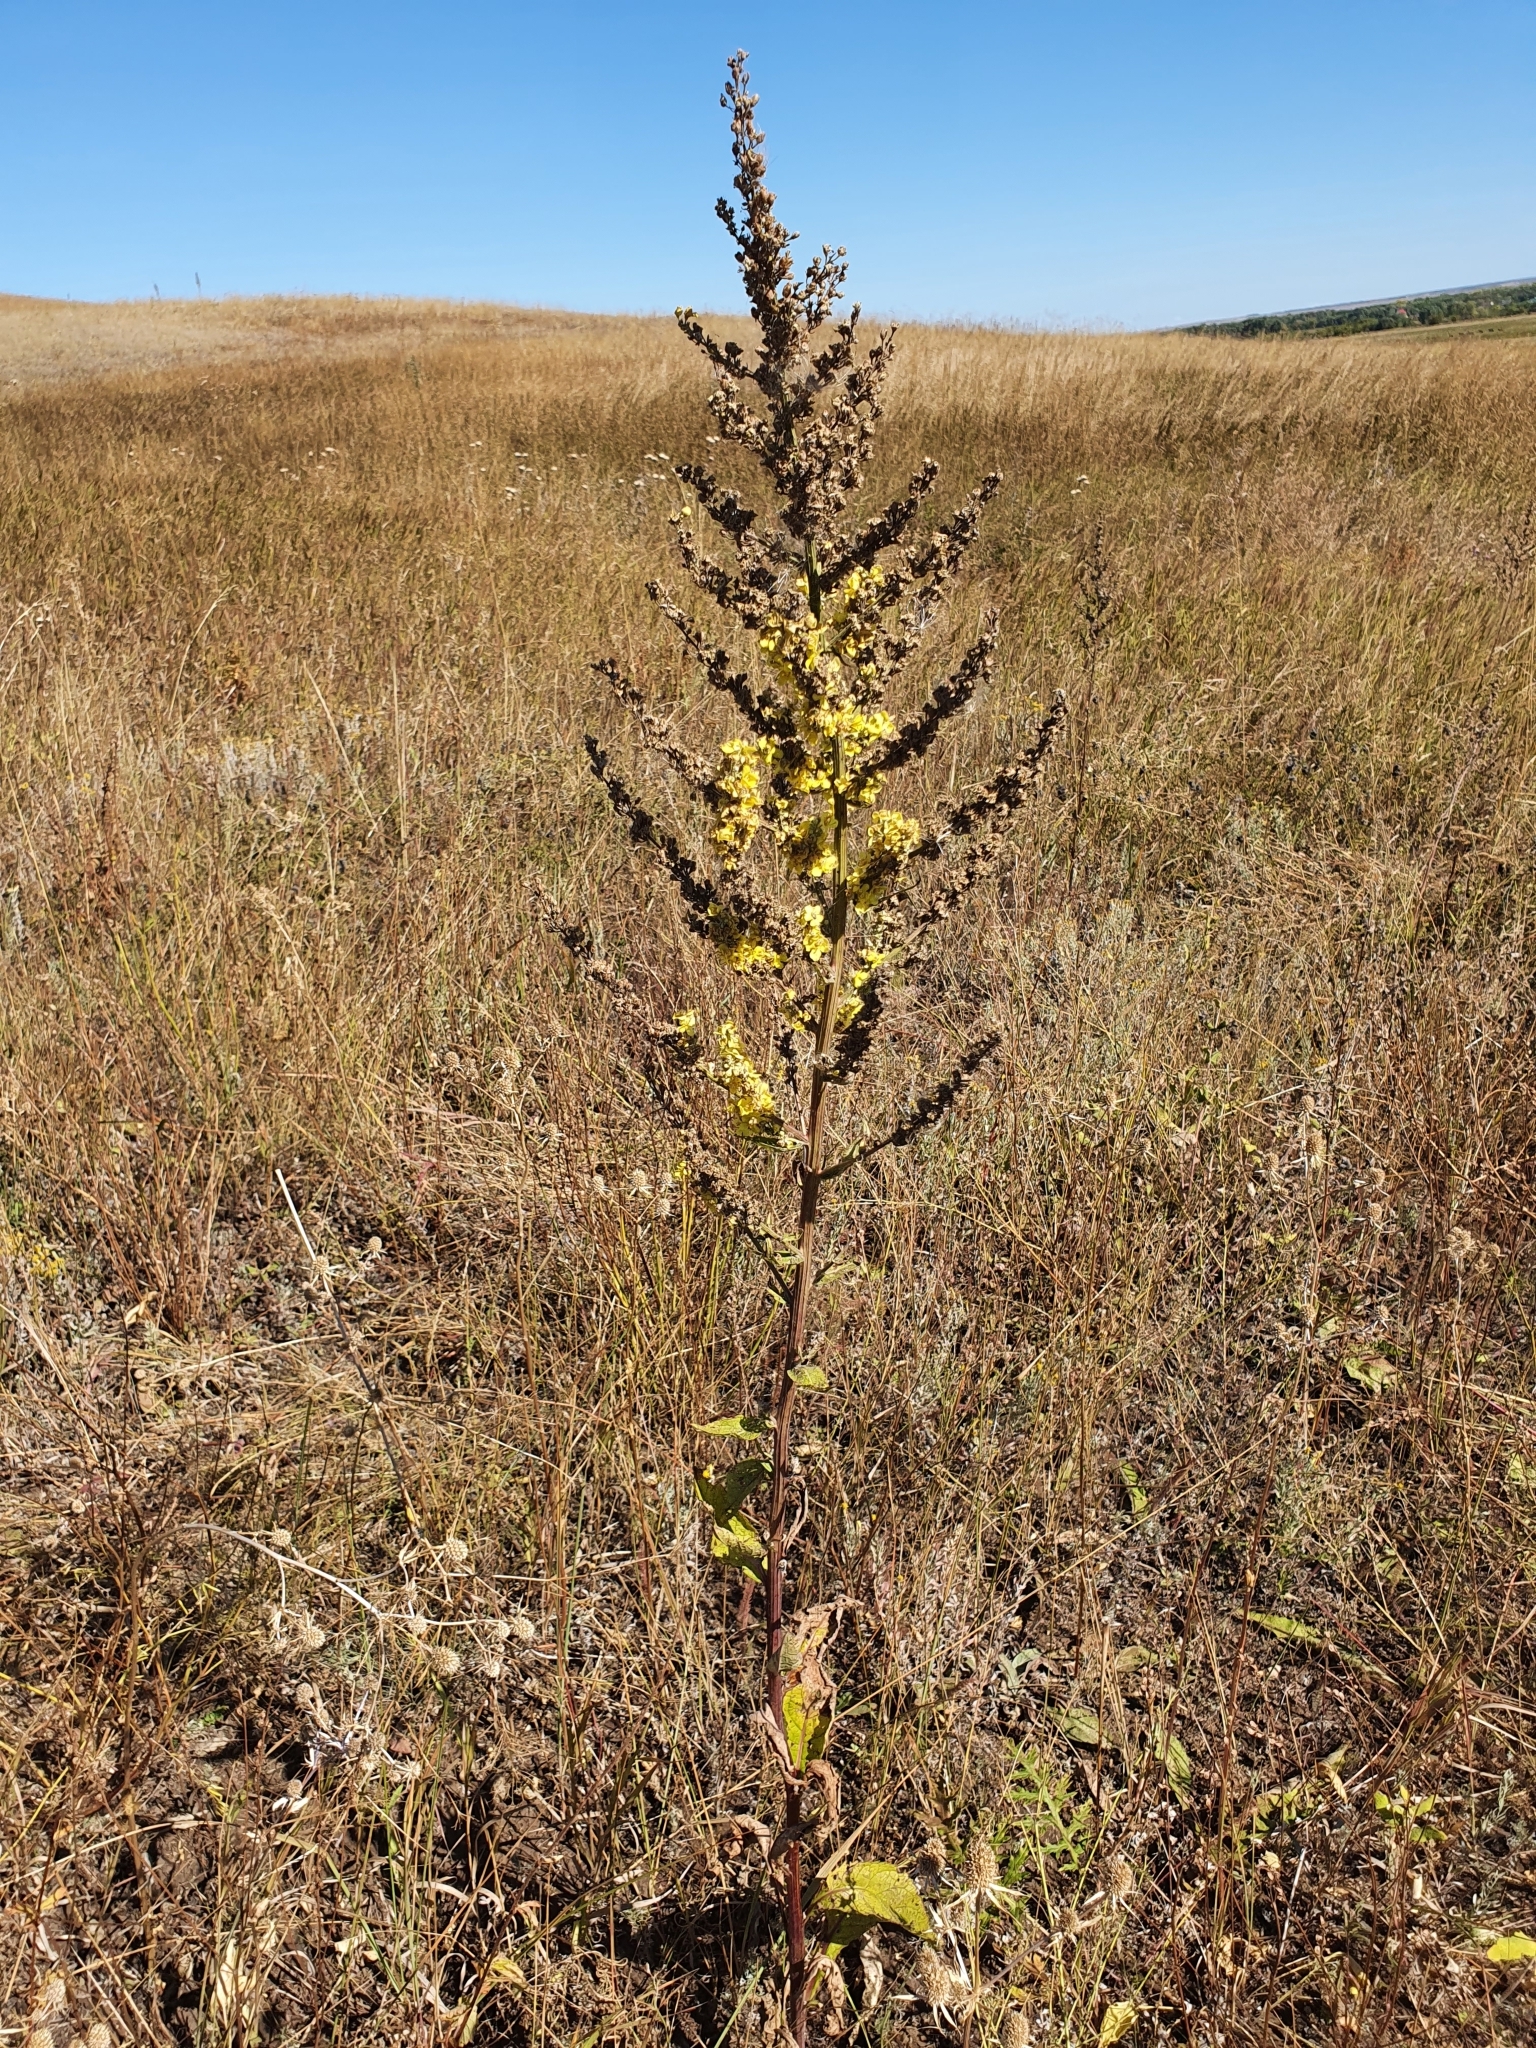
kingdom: Plantae
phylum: Tracheophyta
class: Magnoliopsida
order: Lamiales
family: Scrophulariaceae
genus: Verbascum
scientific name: Verbascum lychnitis
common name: White mullein
